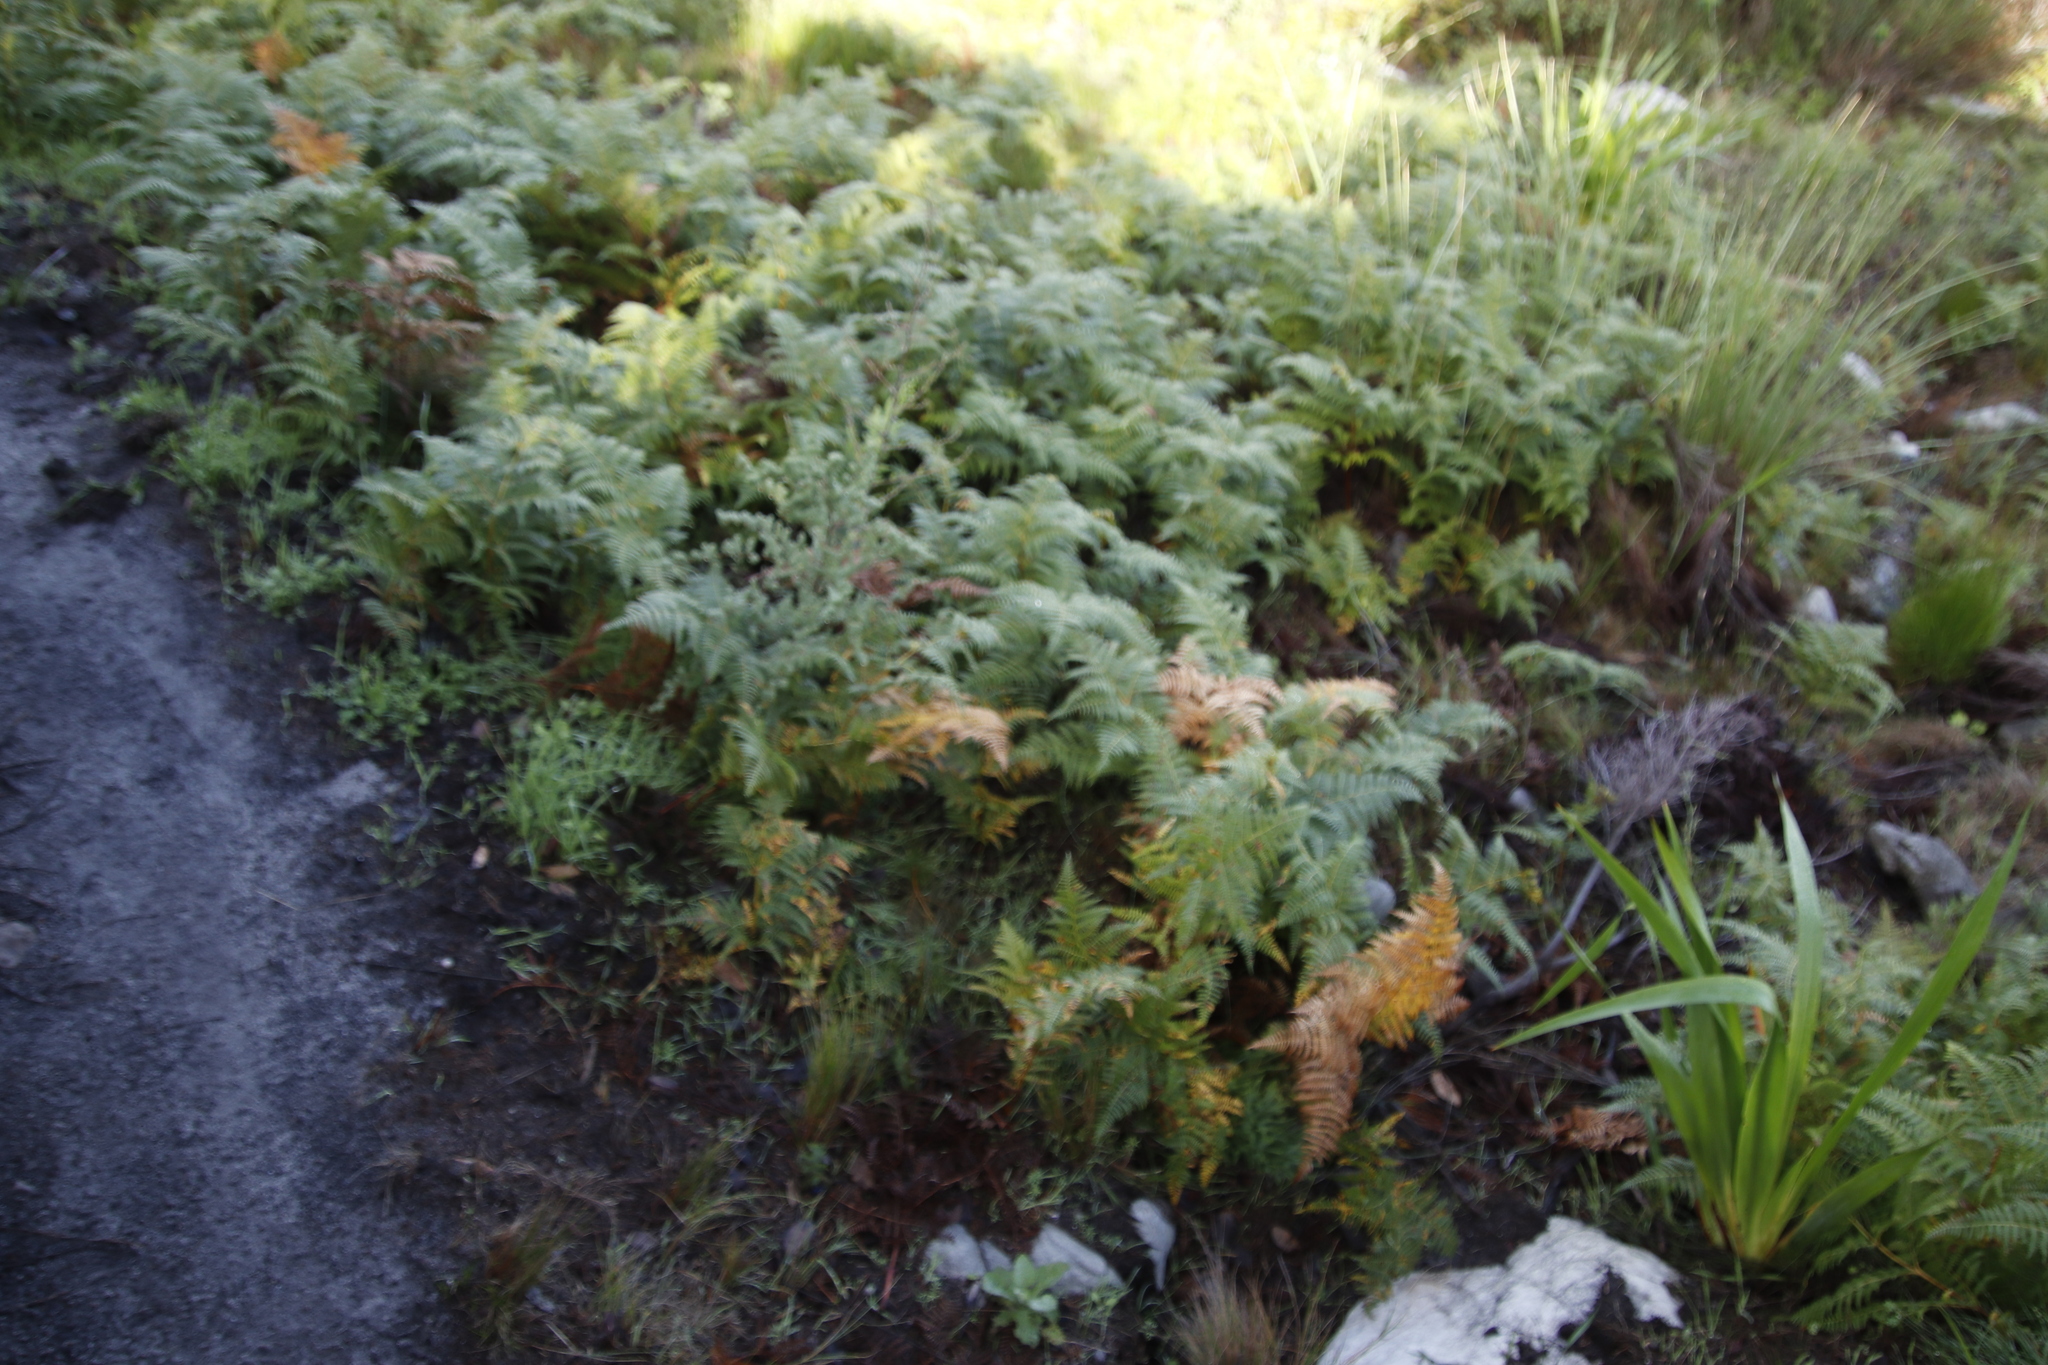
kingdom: Plantae
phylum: Tracheophyta
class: Polypodiopsida
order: Polypodiales
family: Dennstaedtiaceae
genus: Pteridium
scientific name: Pteridium aquilinum
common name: Bracken
